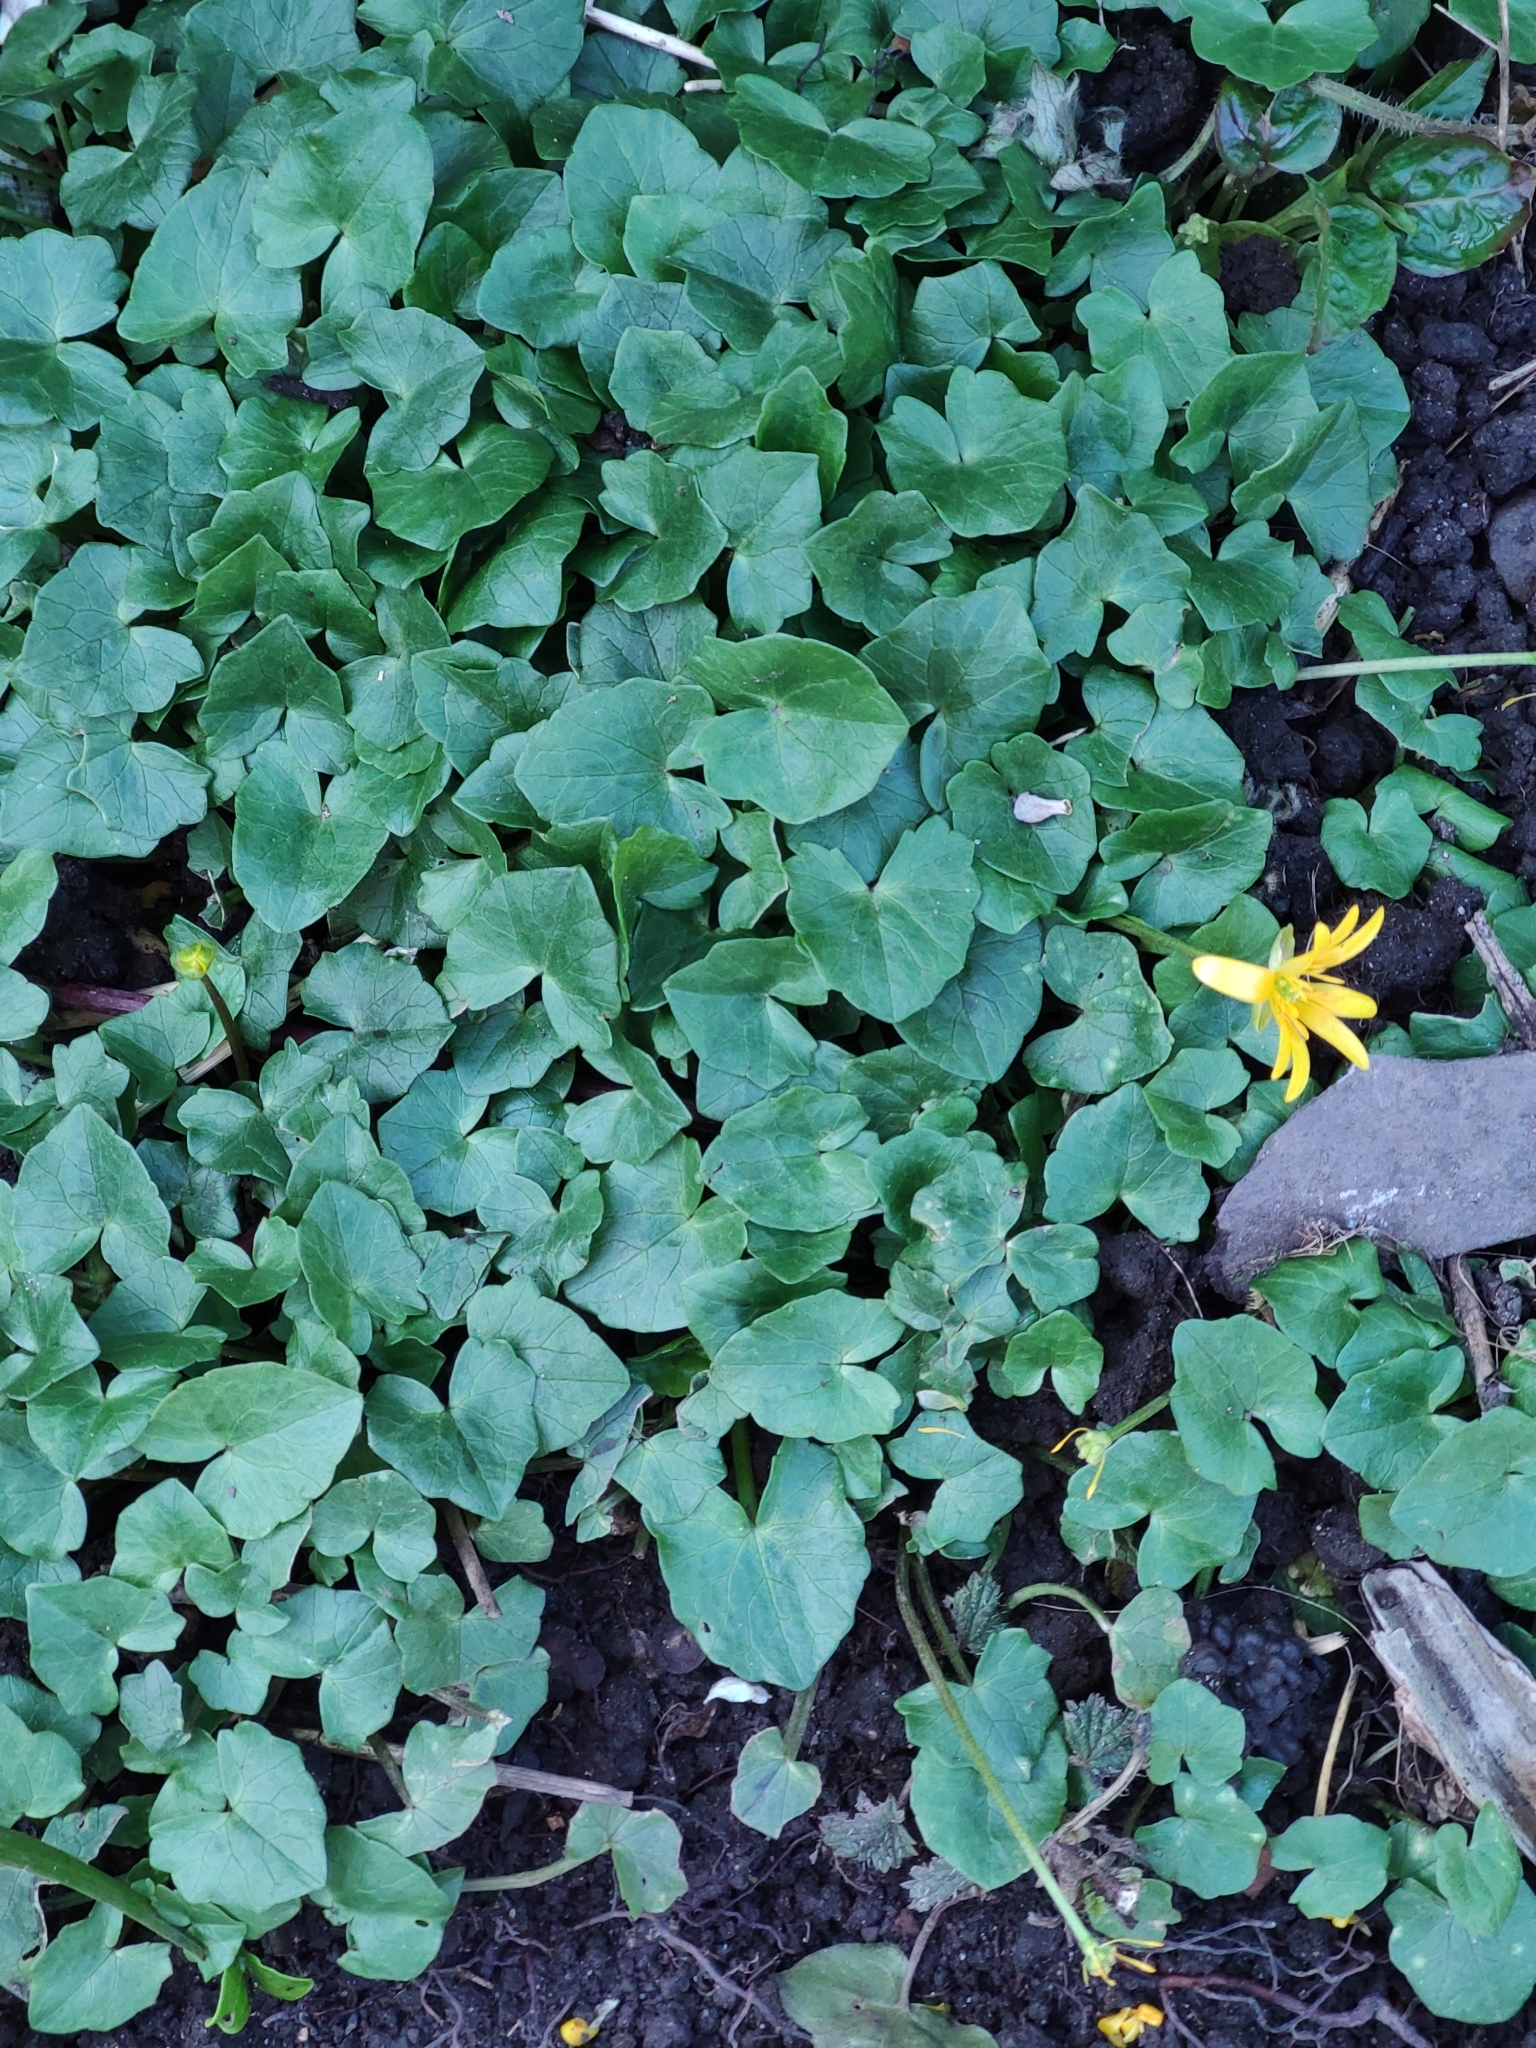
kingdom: Plantae
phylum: Tracheophyta
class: Magnoliopsida
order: Ranunculales
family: Ranunculaceae
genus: Ficaria
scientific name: Ficaria verna
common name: Lesser celandine
